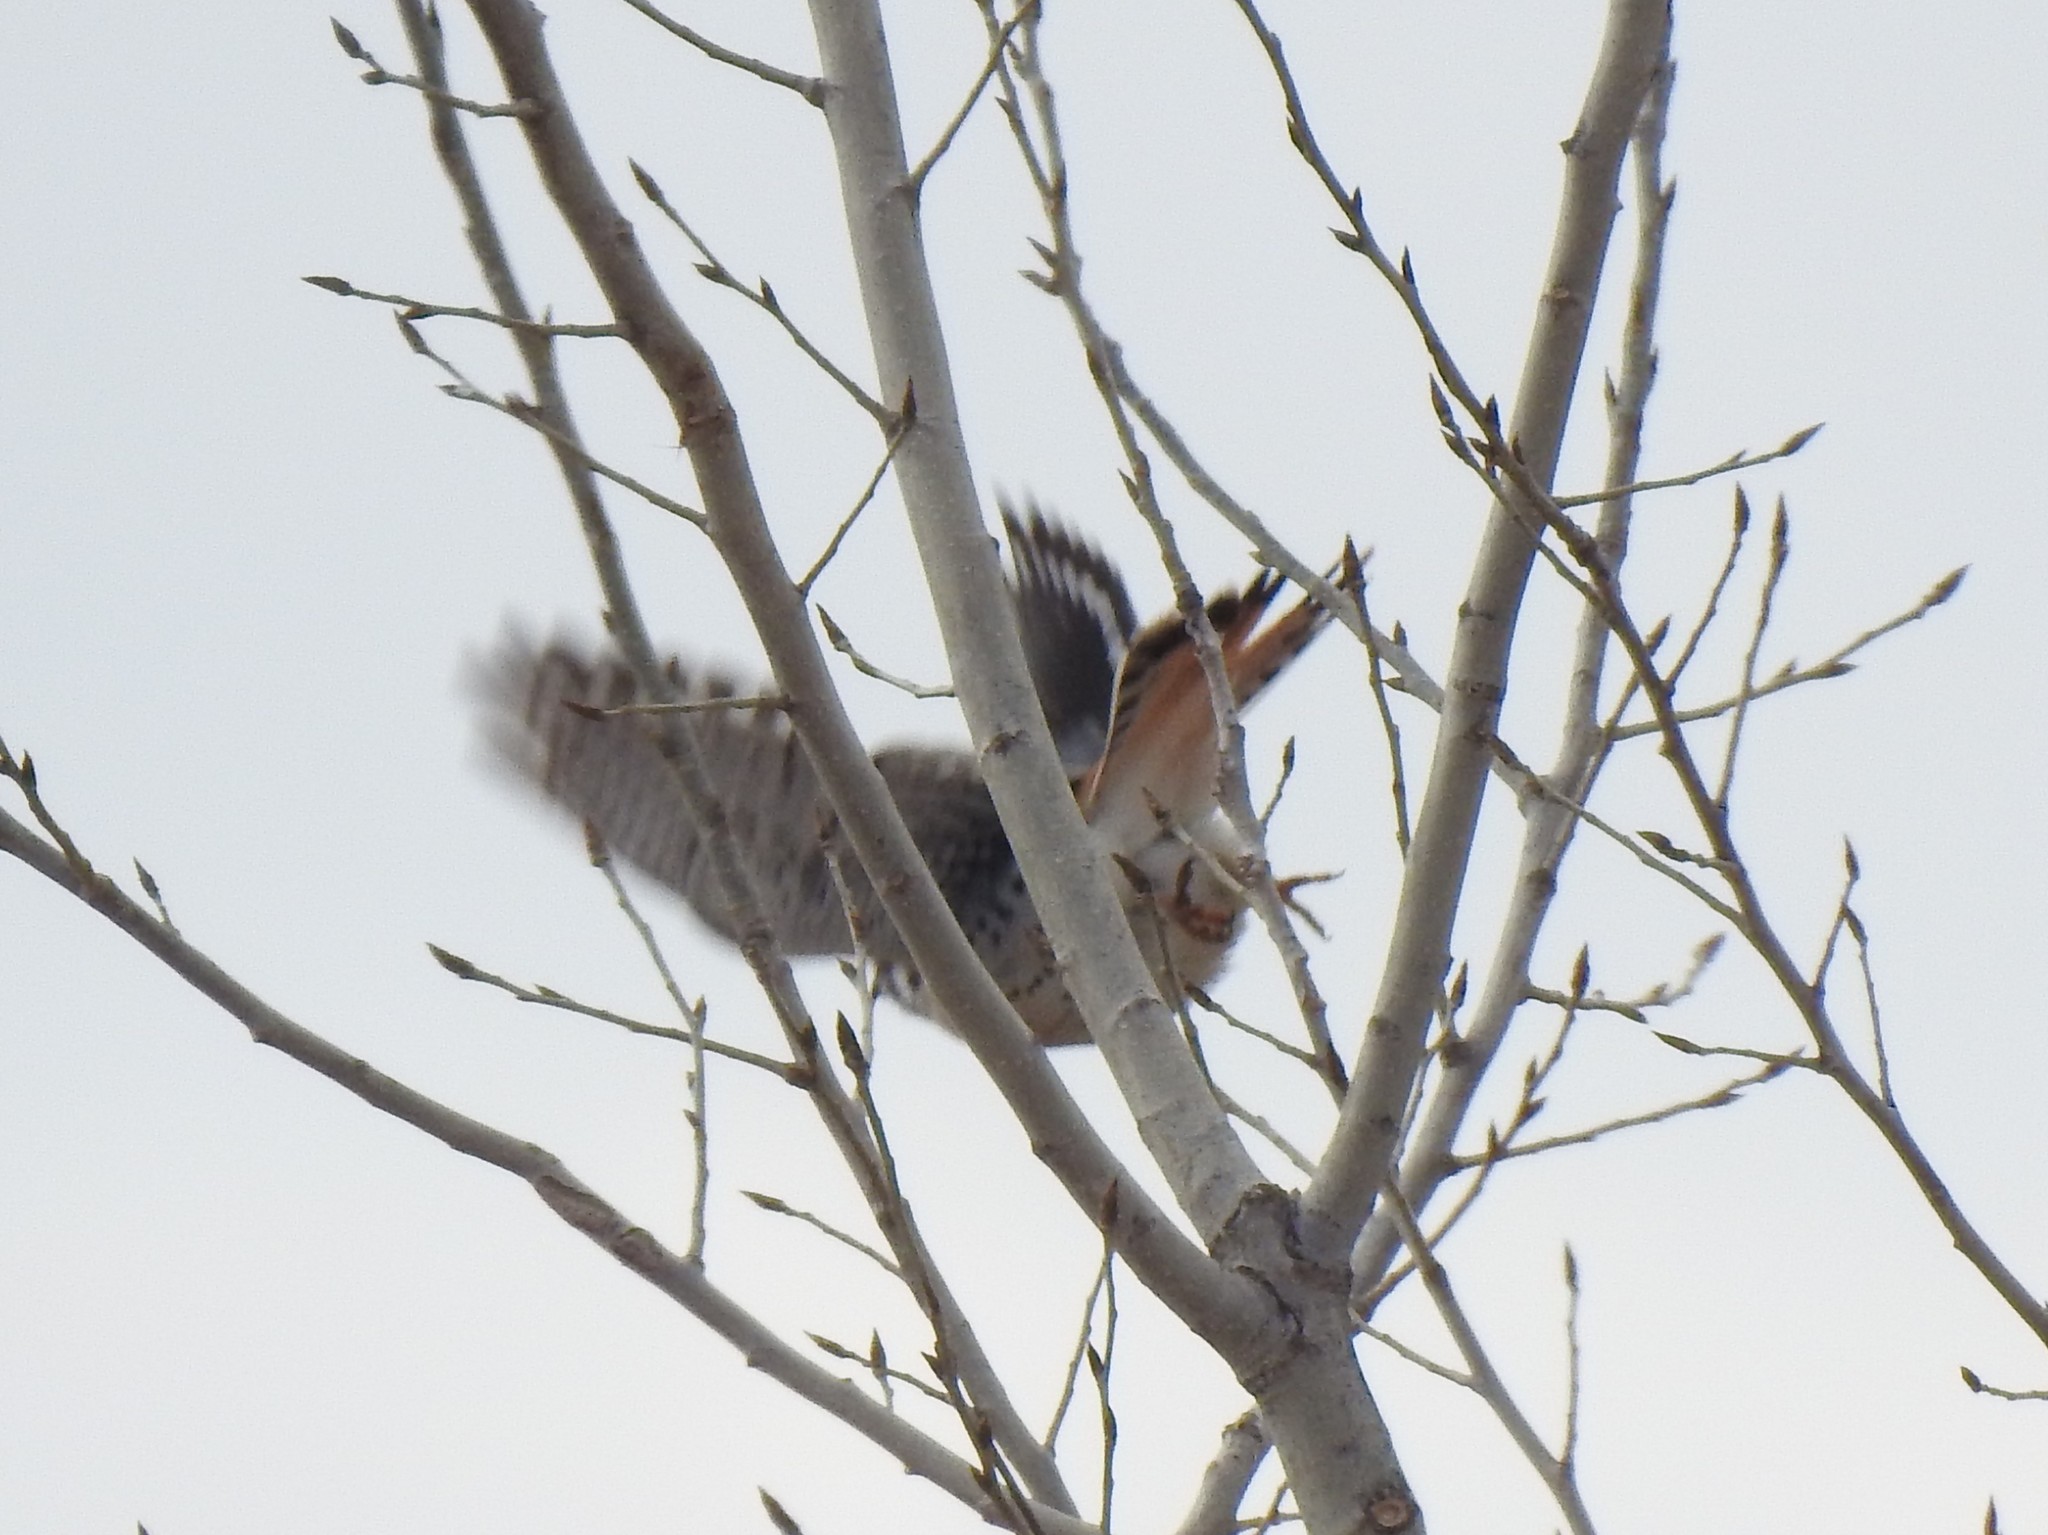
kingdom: Animalia
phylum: Chordata
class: Aves
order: Falconiformes
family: Falconidae
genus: Falco
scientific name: Falco sparverius
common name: American kestrel
